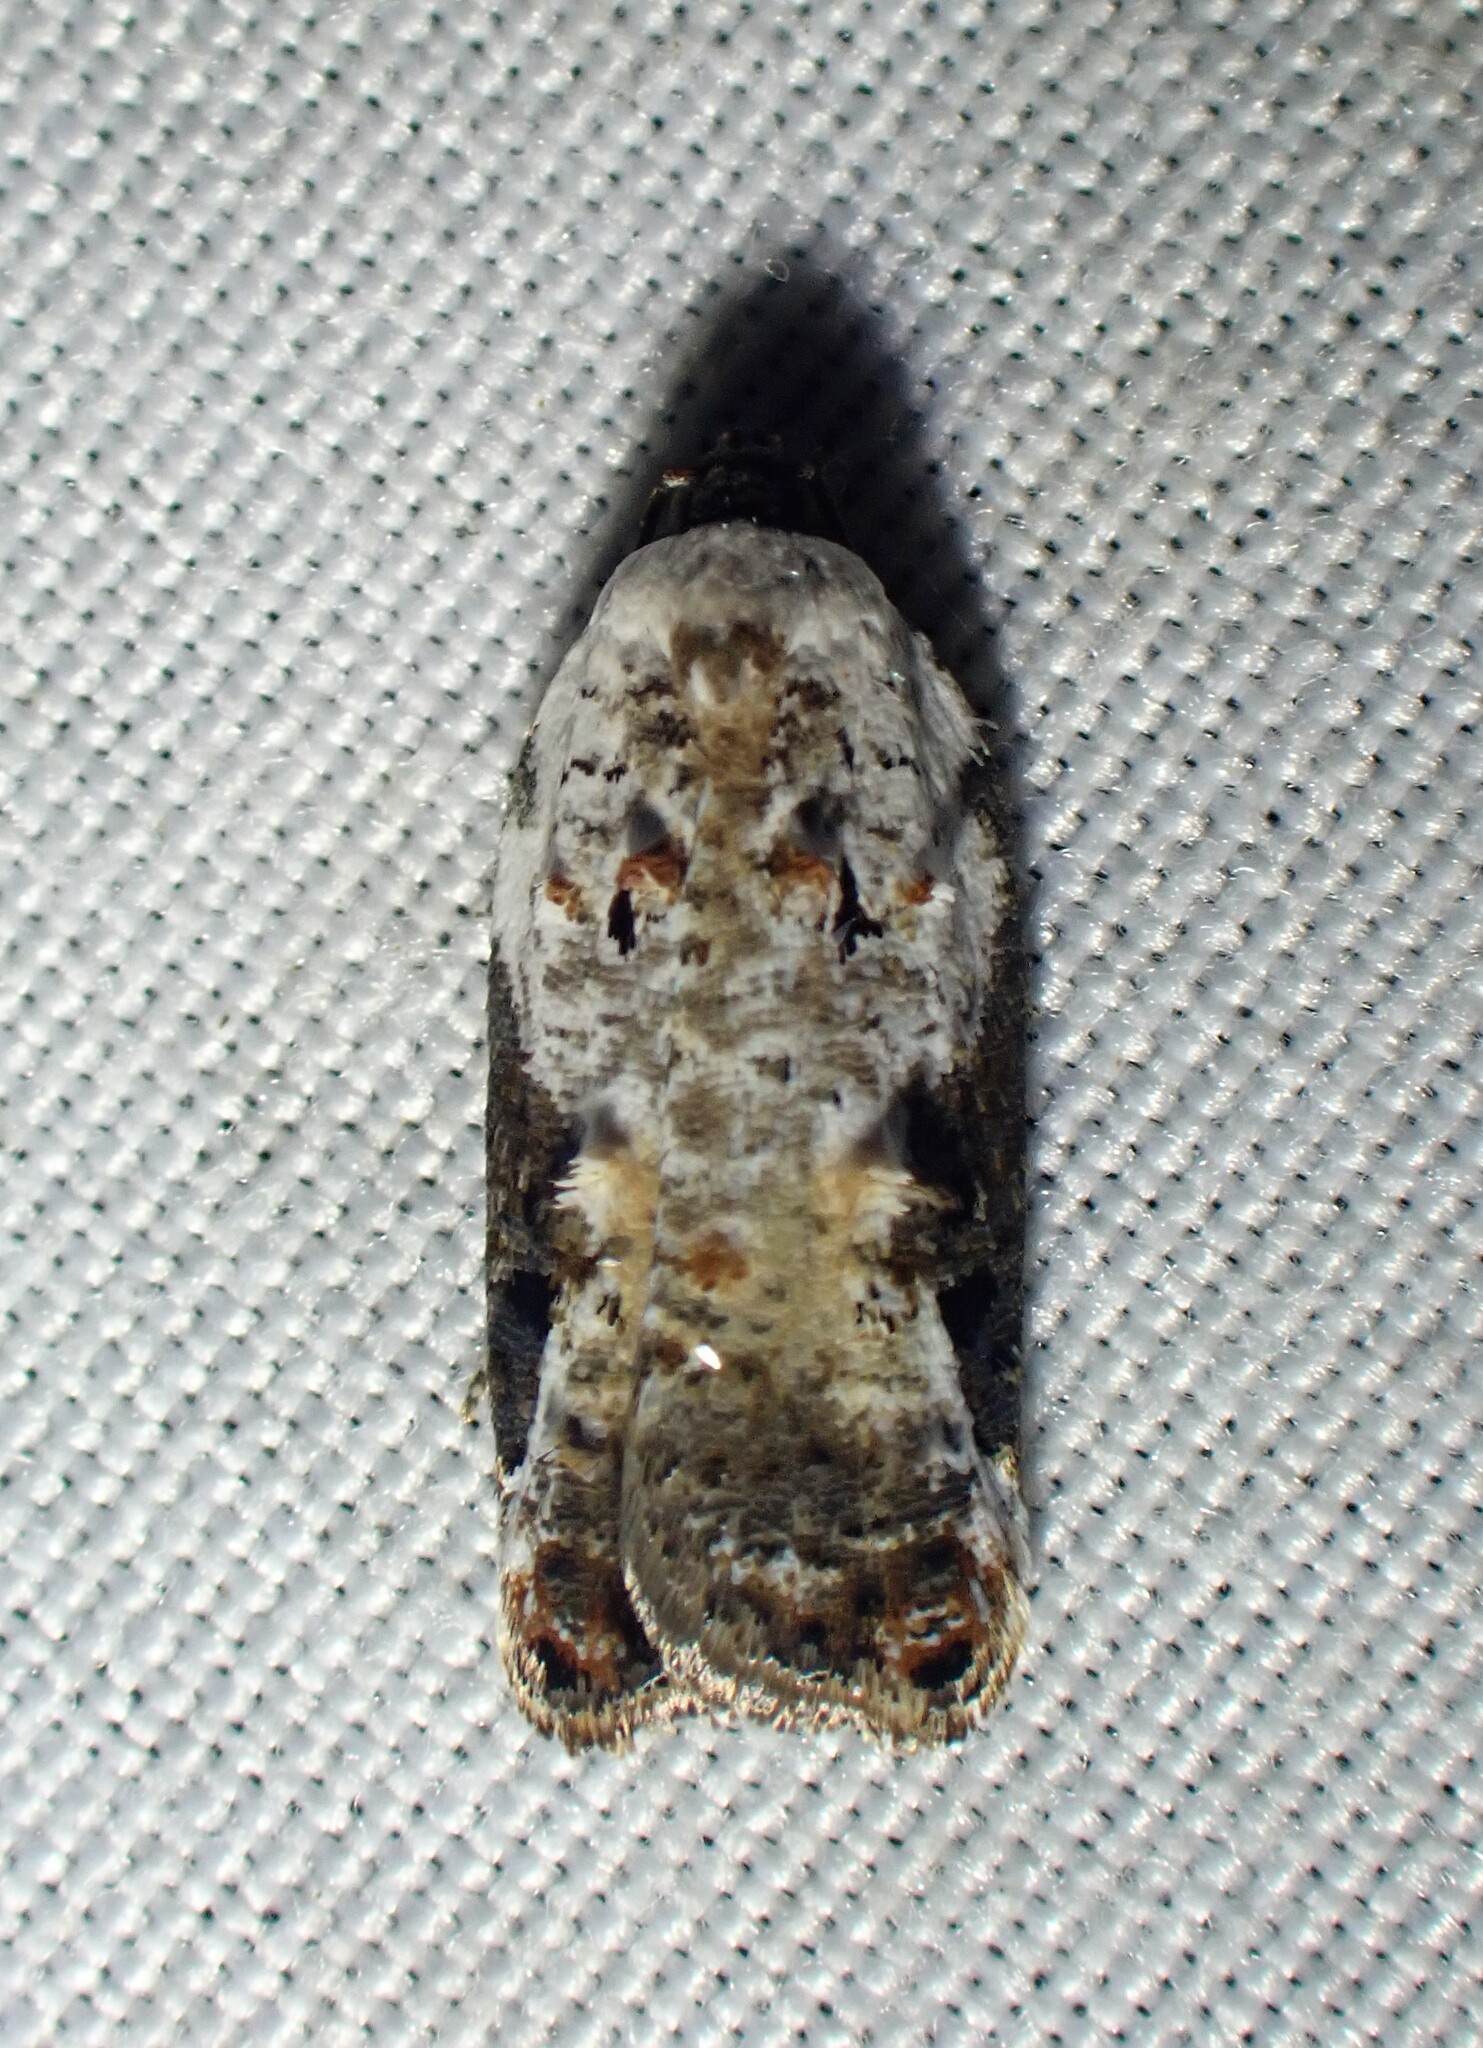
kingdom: Animalia
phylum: Arthropoda
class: Insecta
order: Lepidoptera
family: Tortricidae
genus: Acleris
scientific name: Acleris nivisellana
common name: Snowy-shouldered acleris moth
